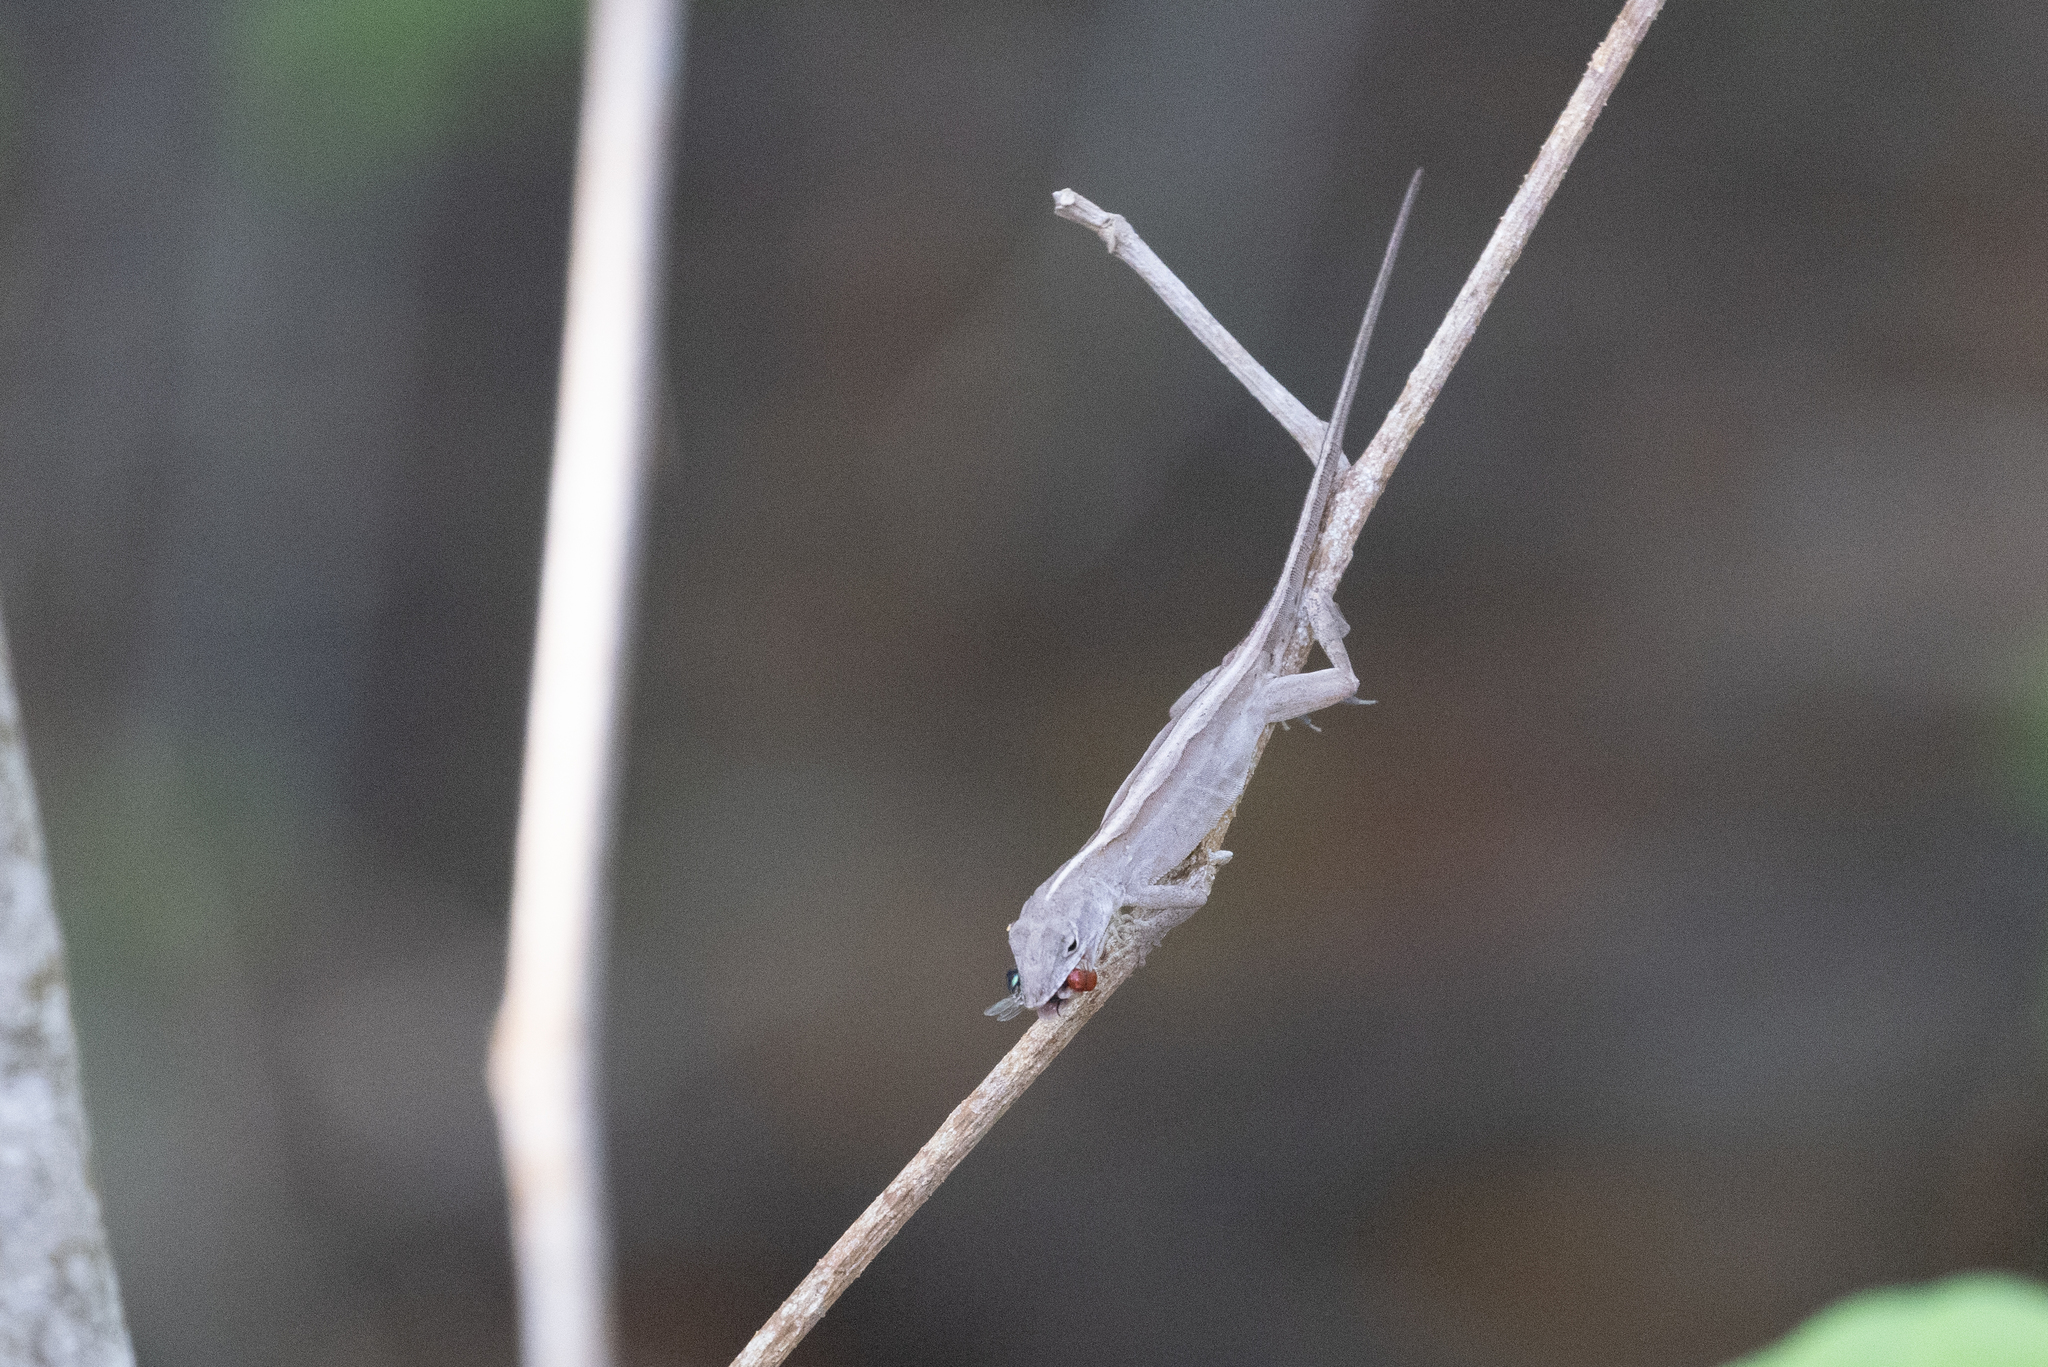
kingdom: Animalia
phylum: Chordata
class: Squamata
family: Dactyloidae
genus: Anolis
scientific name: Anolis sagrei
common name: Brown anole
